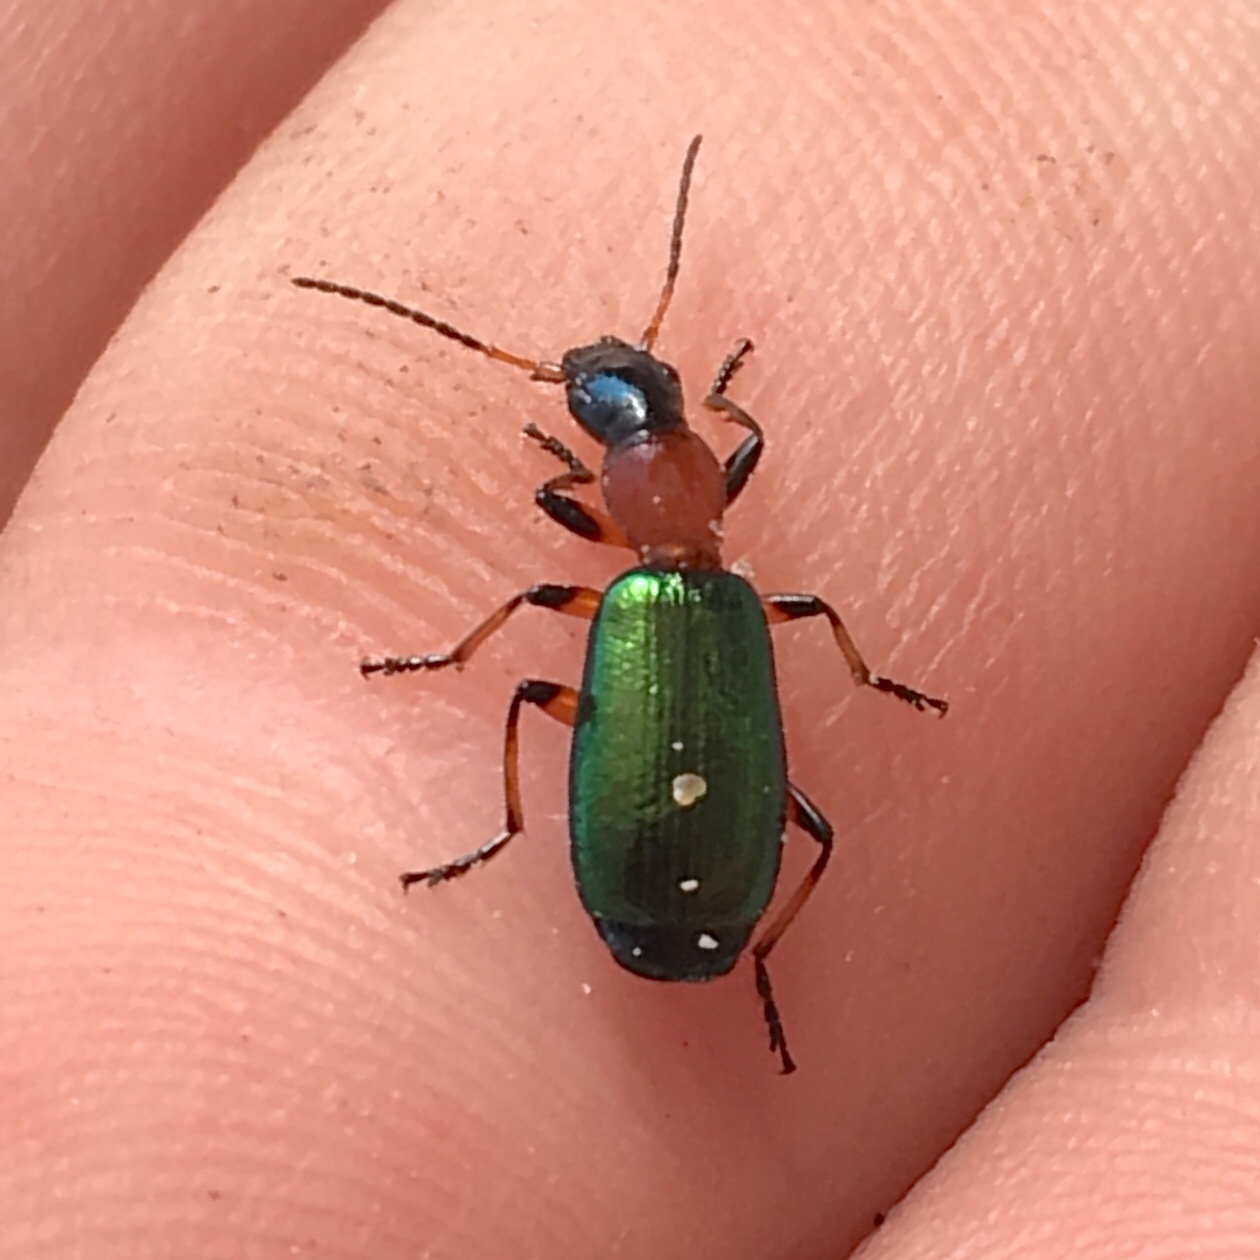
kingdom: Animalia
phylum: Arthropoda
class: Insecta
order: Coleoptera
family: Carabidae
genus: Calleida
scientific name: Calleida punctata
